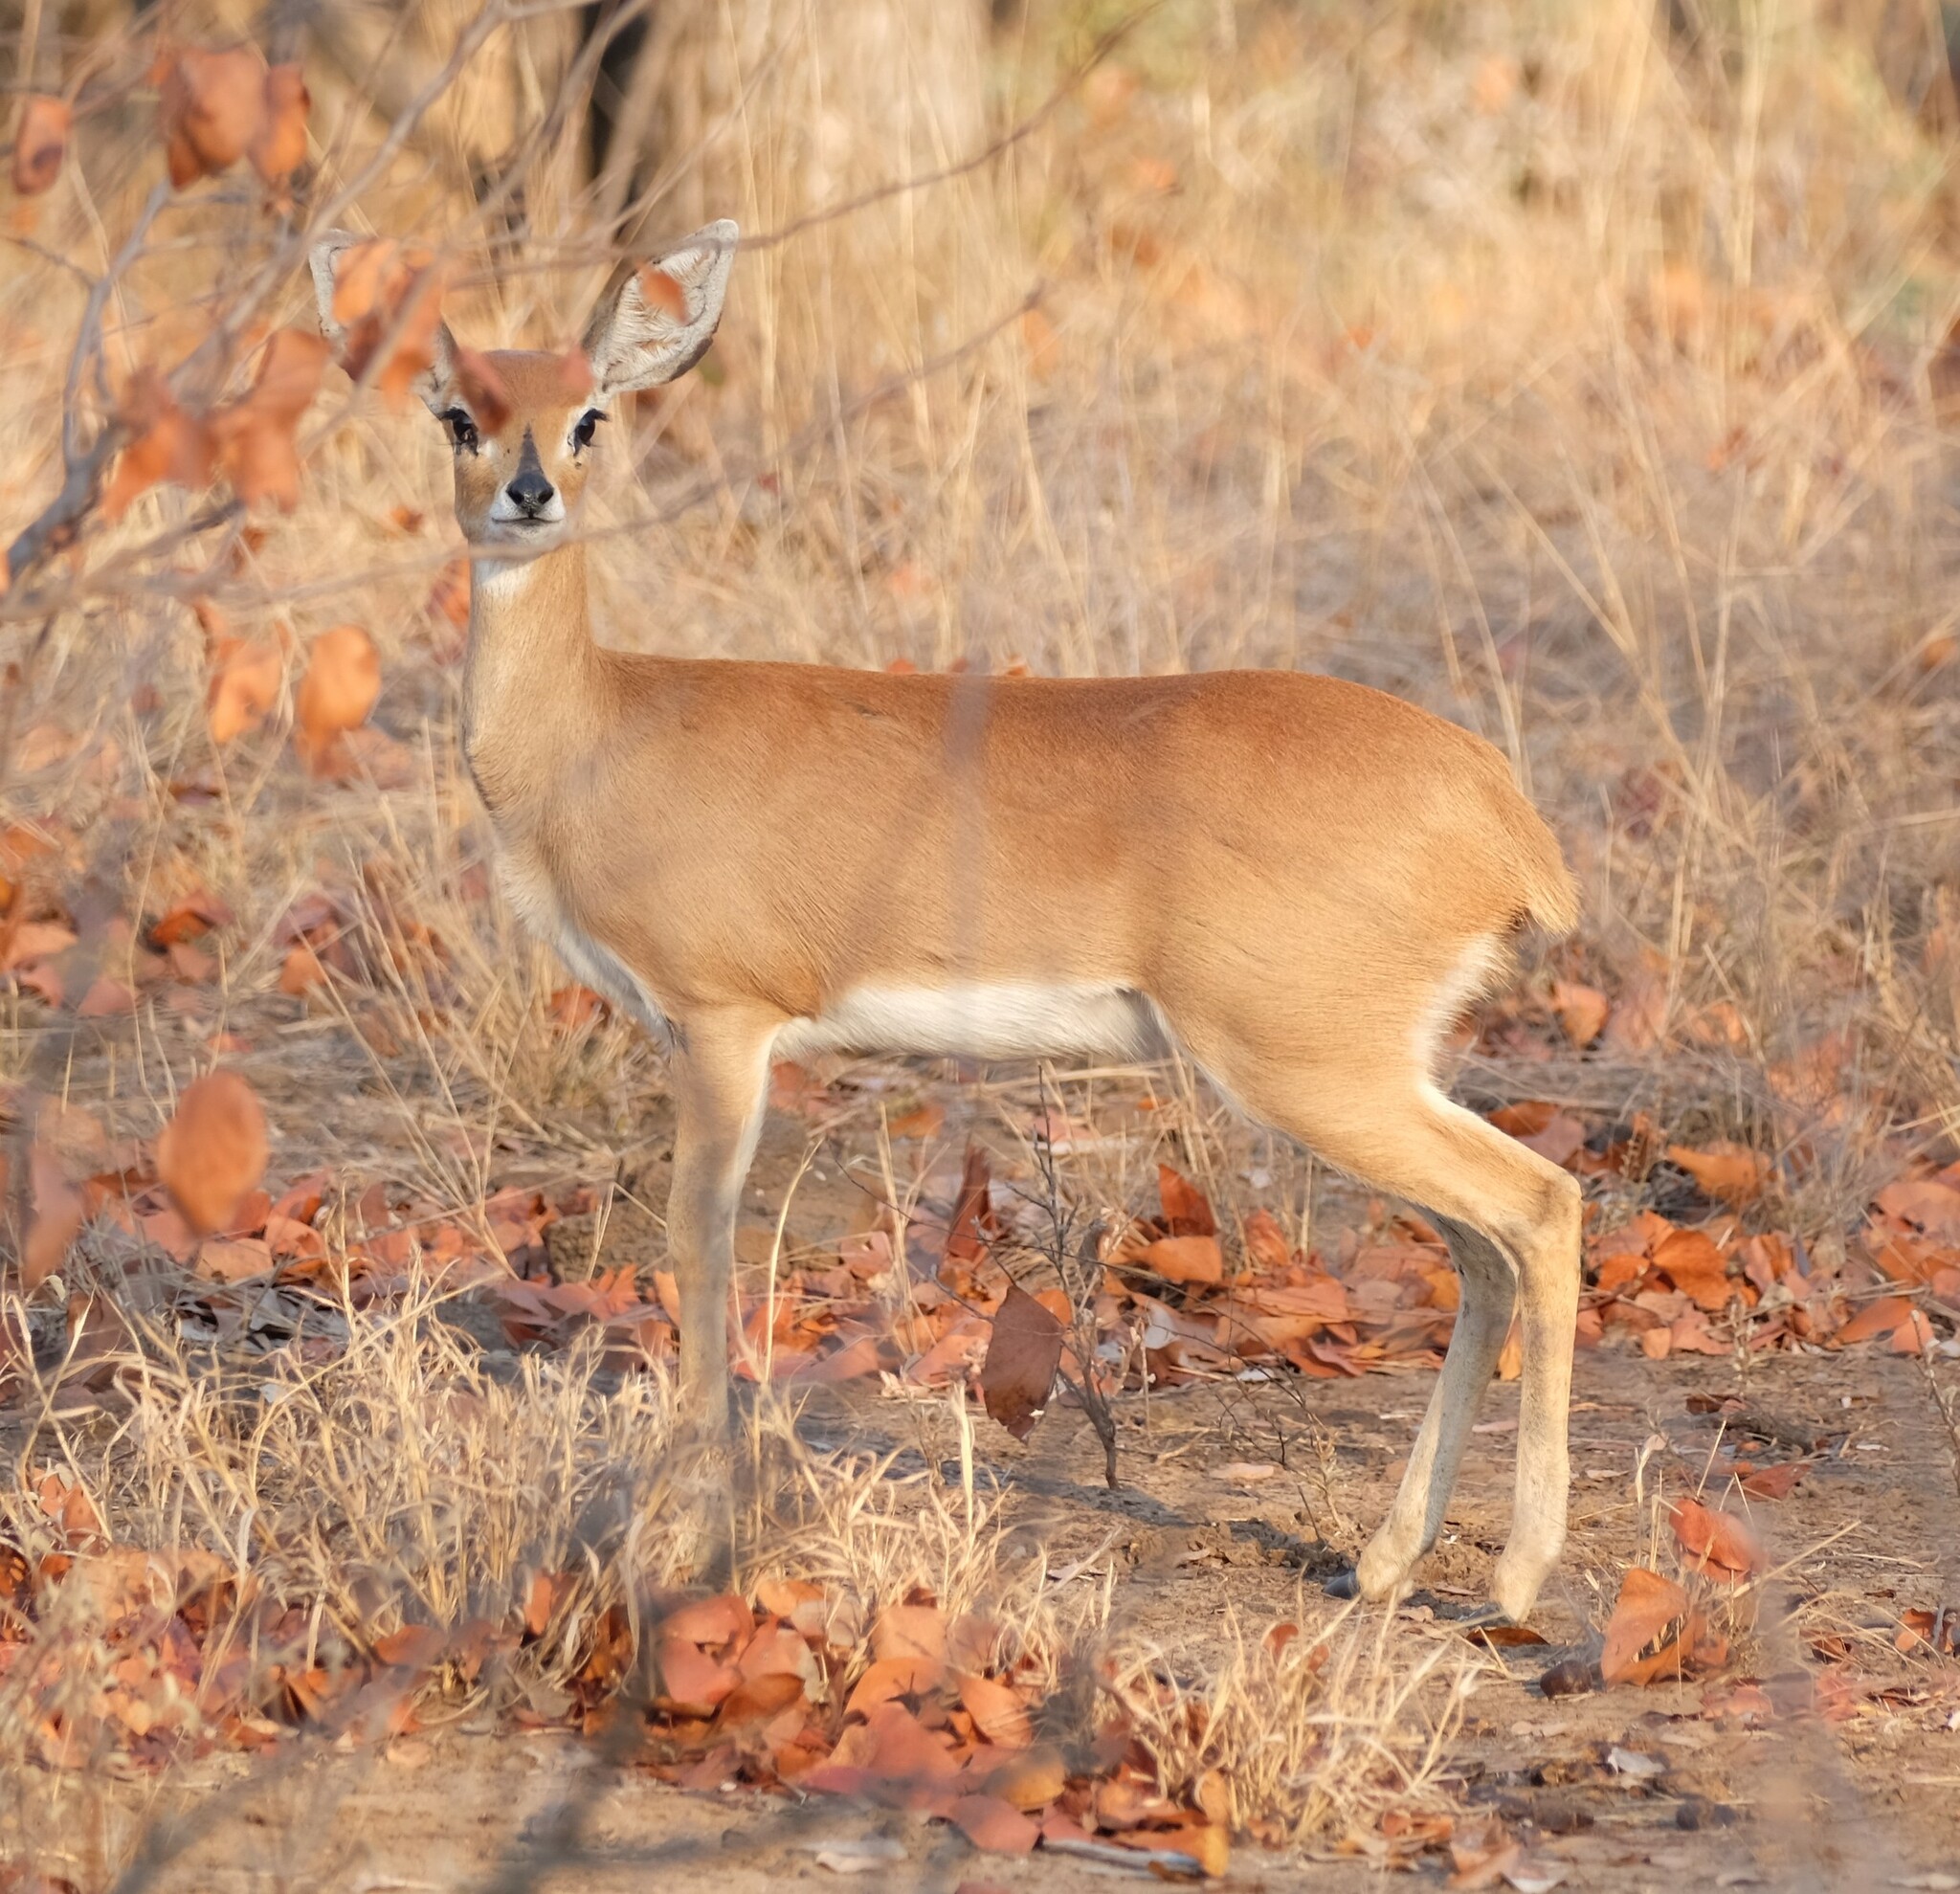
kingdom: Animalia
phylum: Chordata
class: Mammalia
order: Artiodactyla
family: Bovidae
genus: Raphicerus
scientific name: Raphicerus campestris
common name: Steenbok
